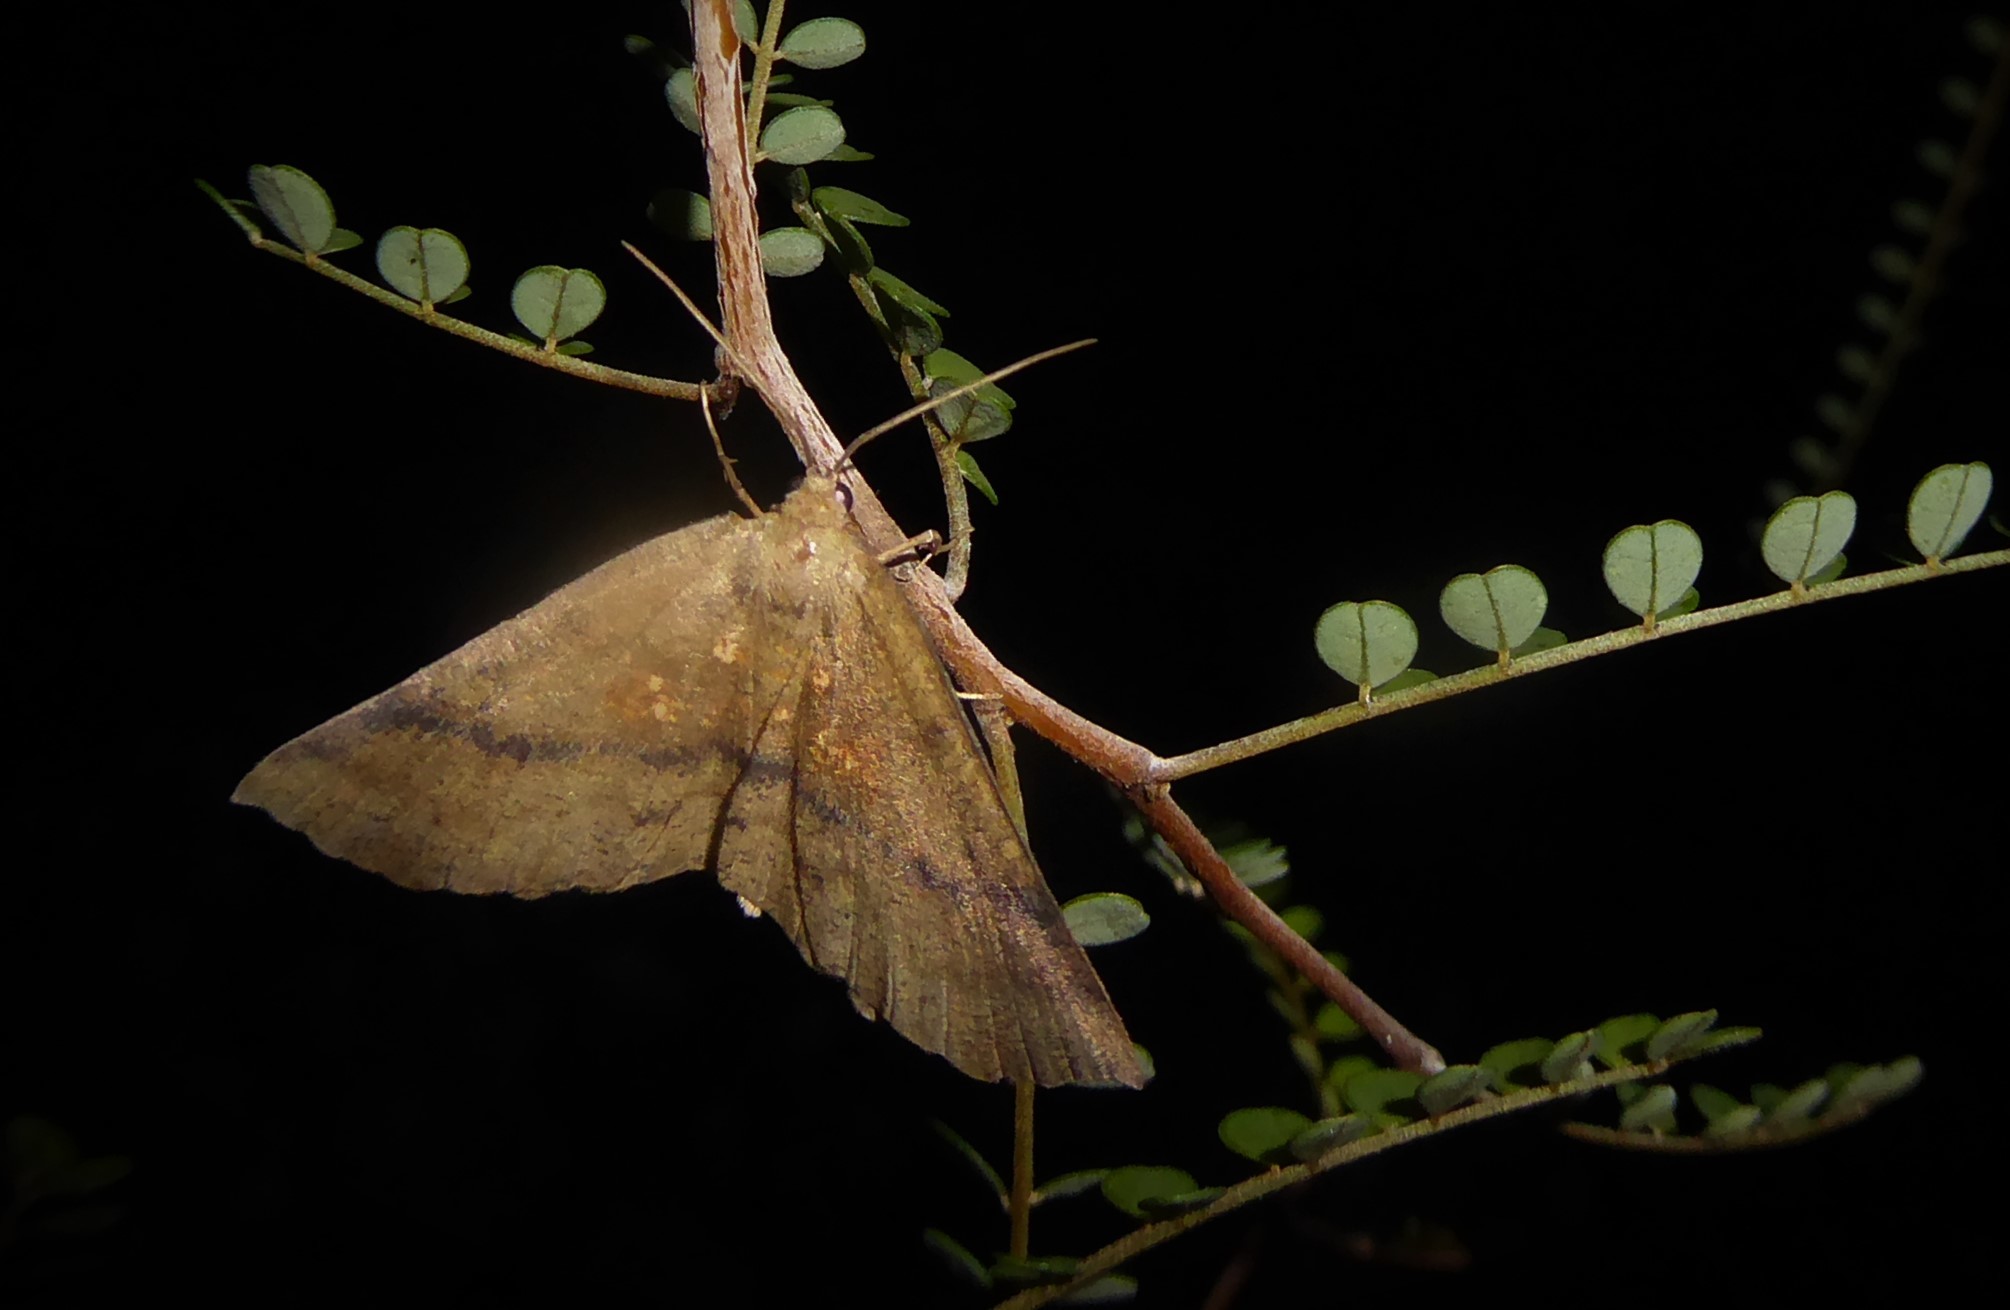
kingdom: Animalia
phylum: Arthropoda
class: Insecta
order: Lepidoptera
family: Geometridae
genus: Xyridacma
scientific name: Xyridacma ustaria
